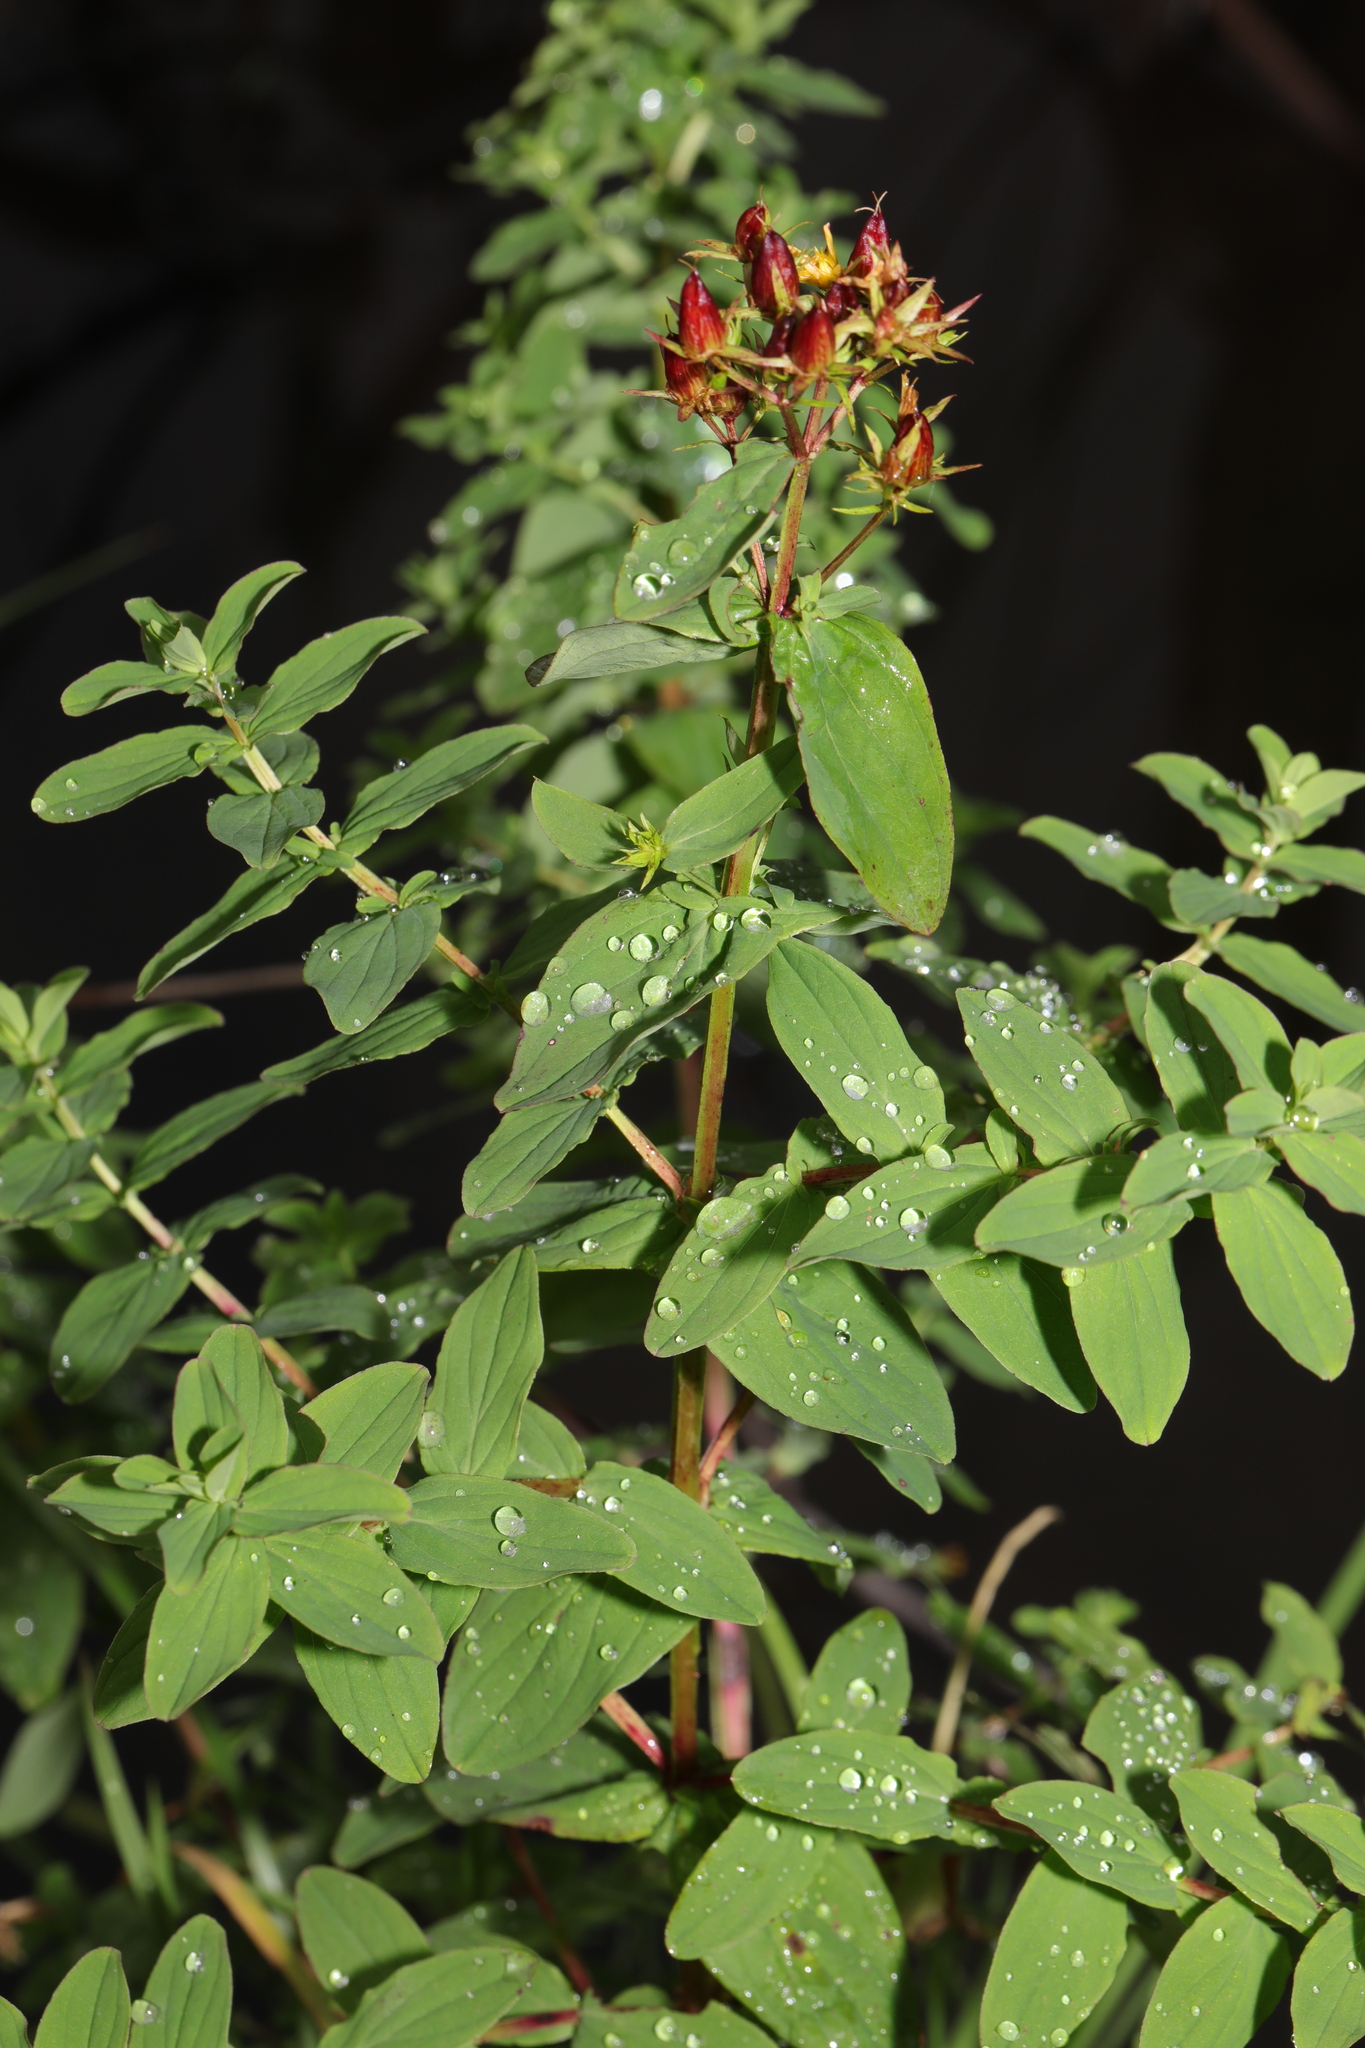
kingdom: Plantae
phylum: Tracheophyta
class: Magnoliopsida
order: Malpighiales
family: Hypericaceae
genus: Hypericum
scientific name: Hypericum tetrapterum
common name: Square-stalked st. john's-wort
